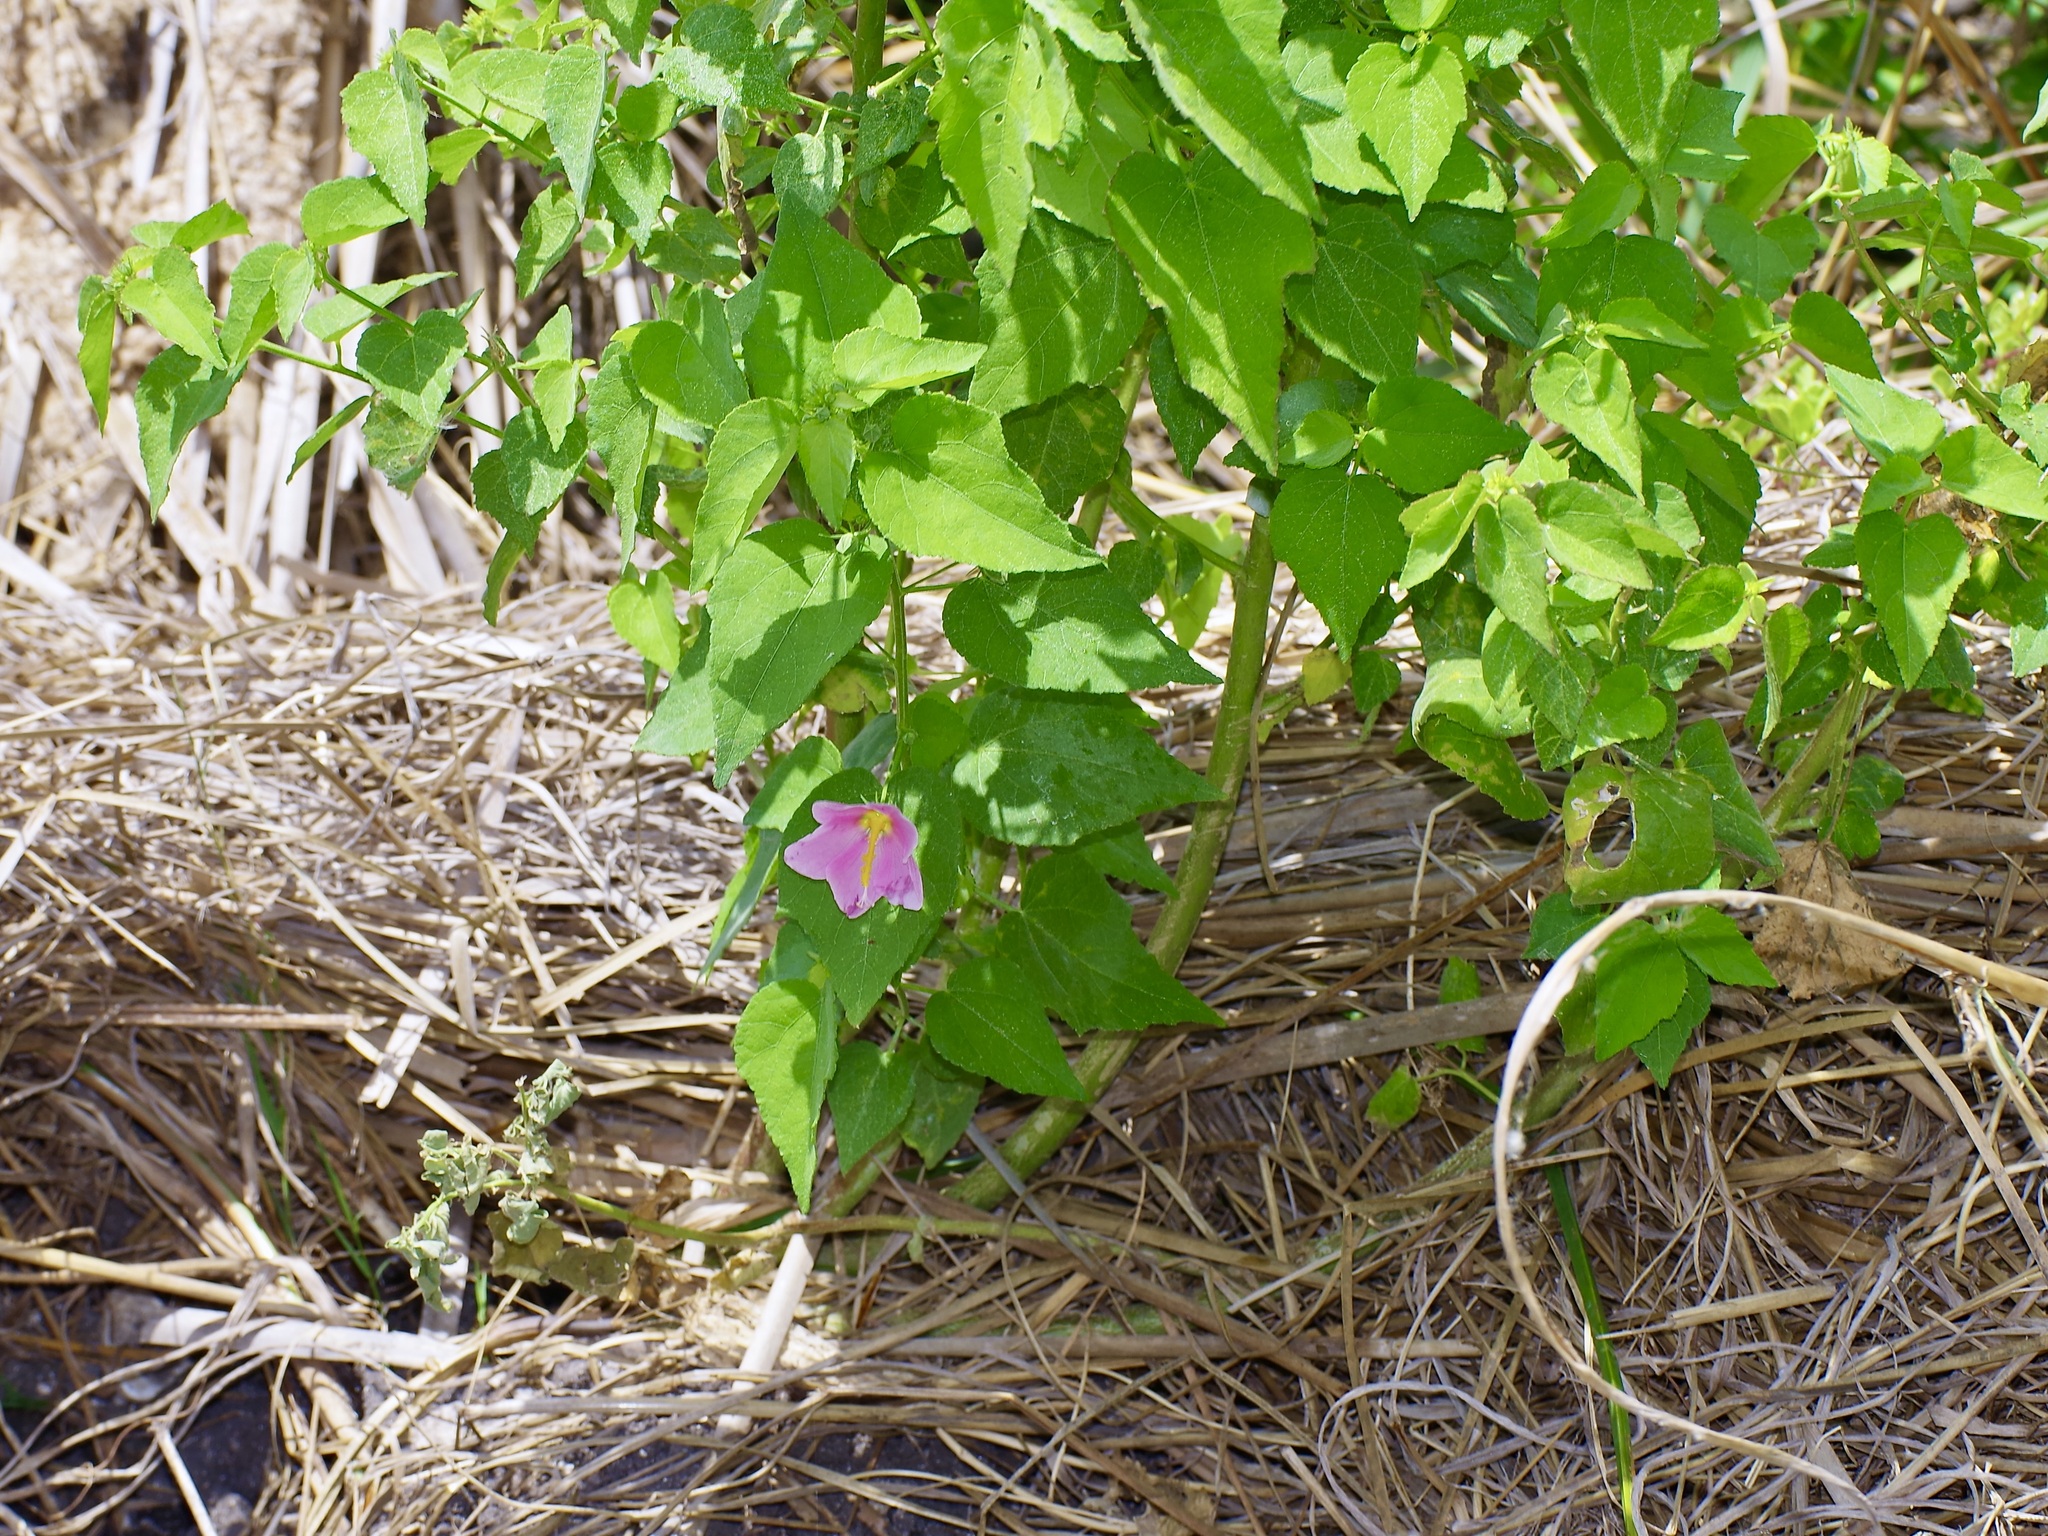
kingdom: Plantae
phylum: Tracheophyta
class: Magnoliopsida
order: Malvales
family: Malvaceae
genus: Kosteletzkya
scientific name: Kosteletzkya pentacarpos
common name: Virginia saltmarsh mallow
